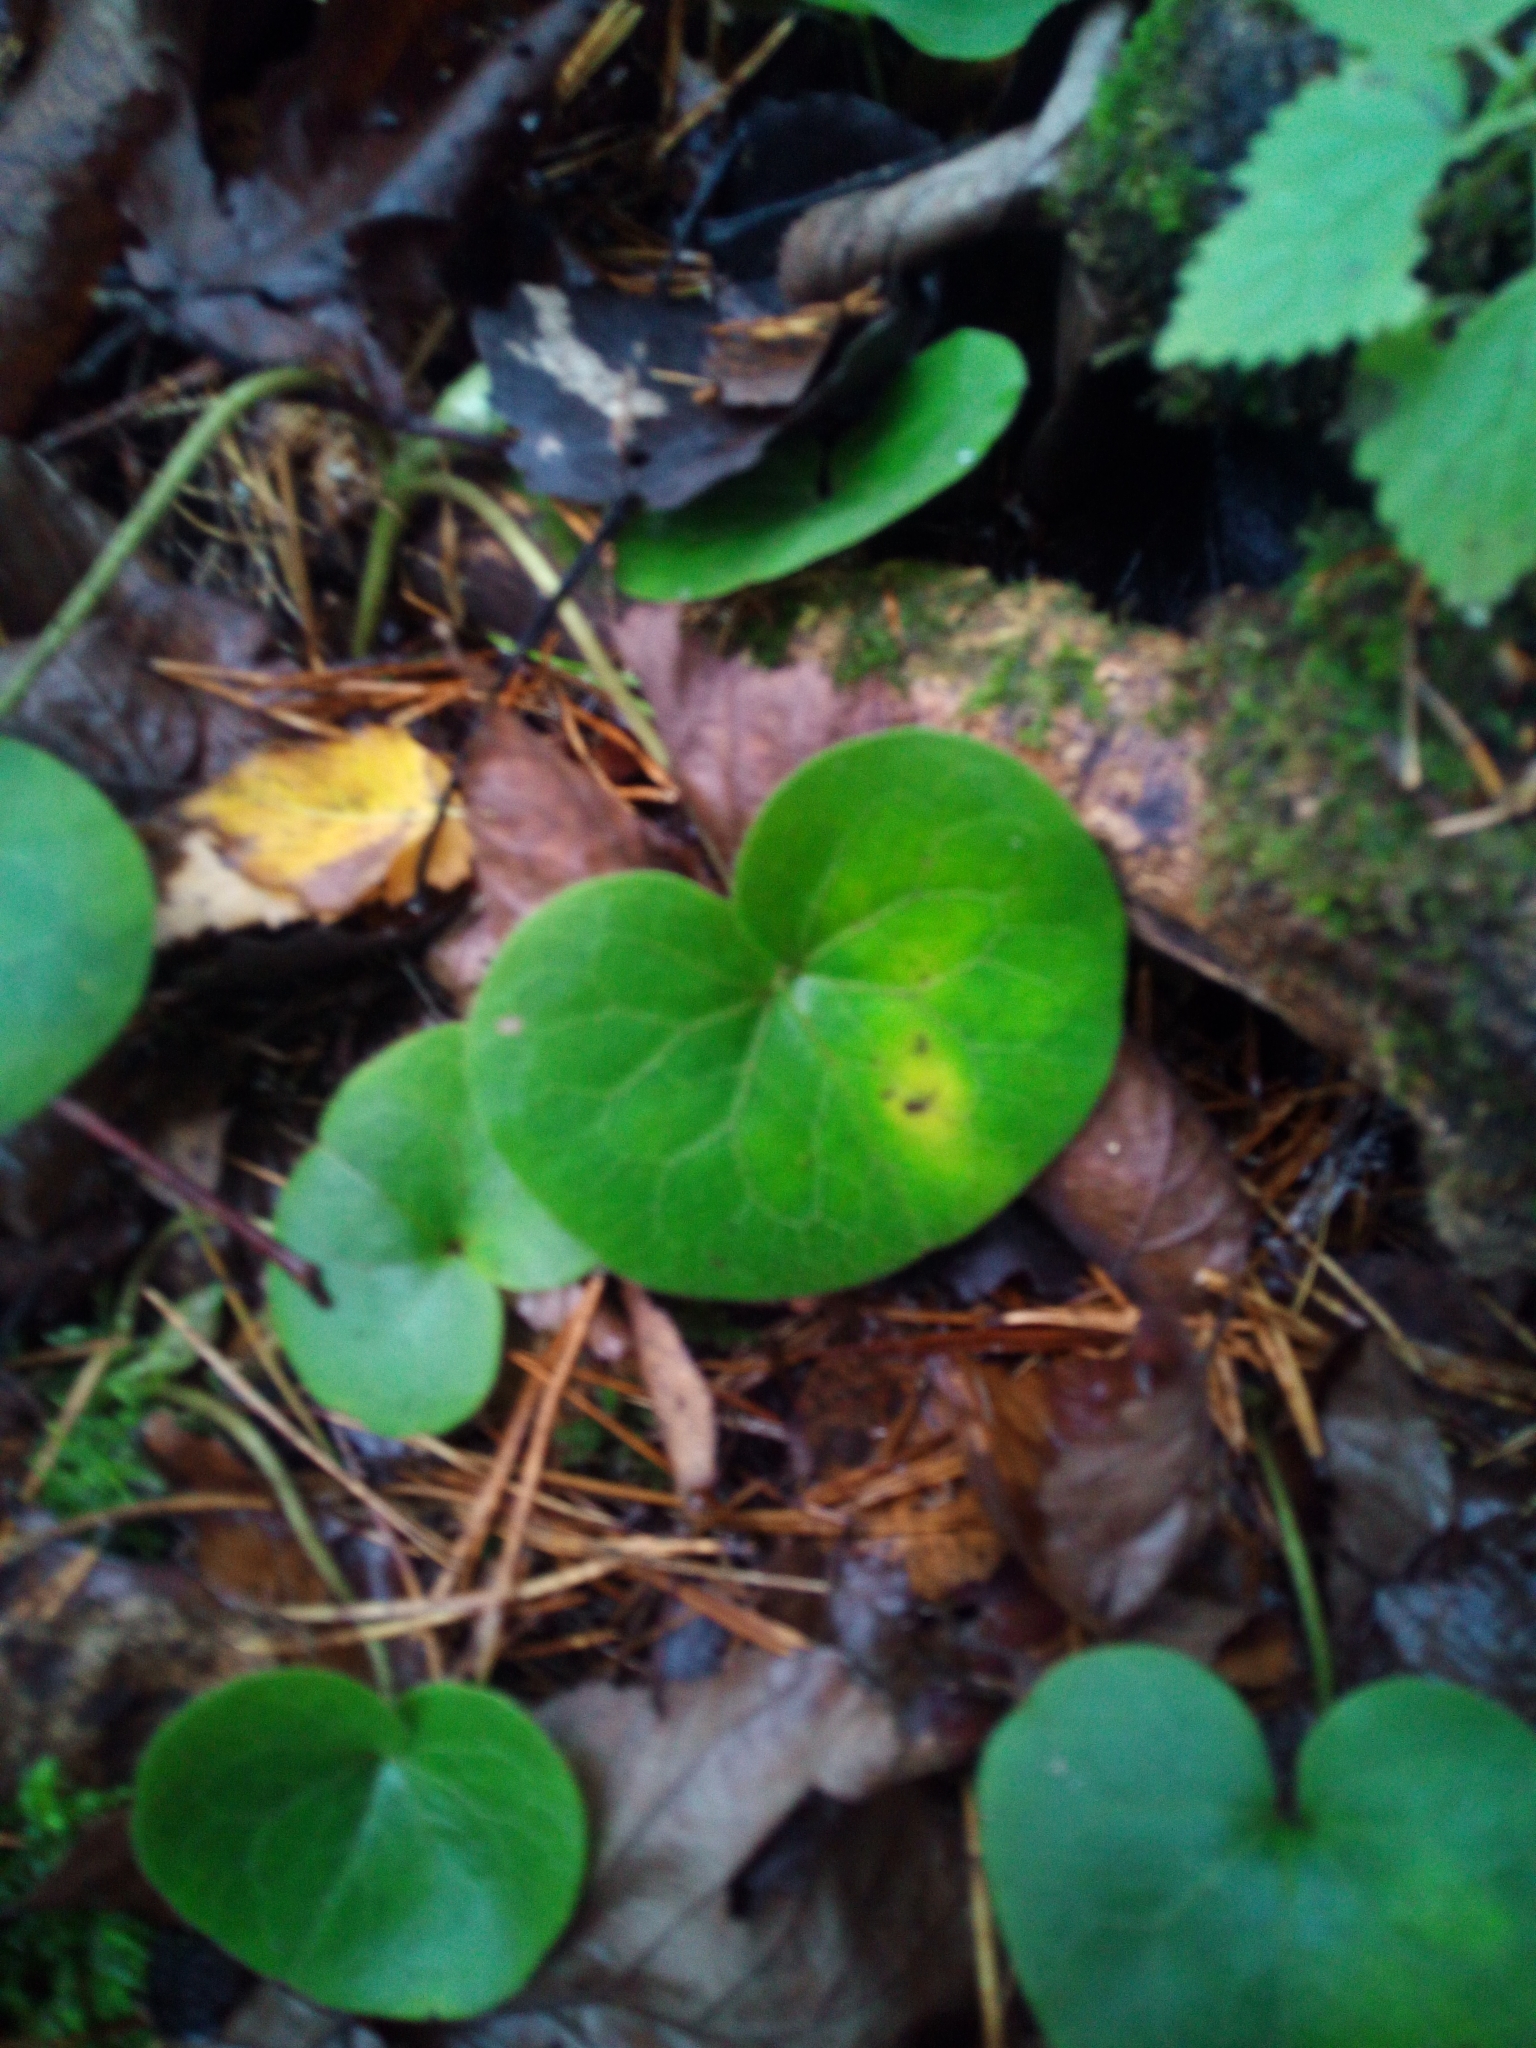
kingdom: Plantae
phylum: Tracheophyta
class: Magnoliopsida
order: Piperales
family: Aristolochiaceae
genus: Asarum
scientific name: Asarum europaeum
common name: Asarabacca
